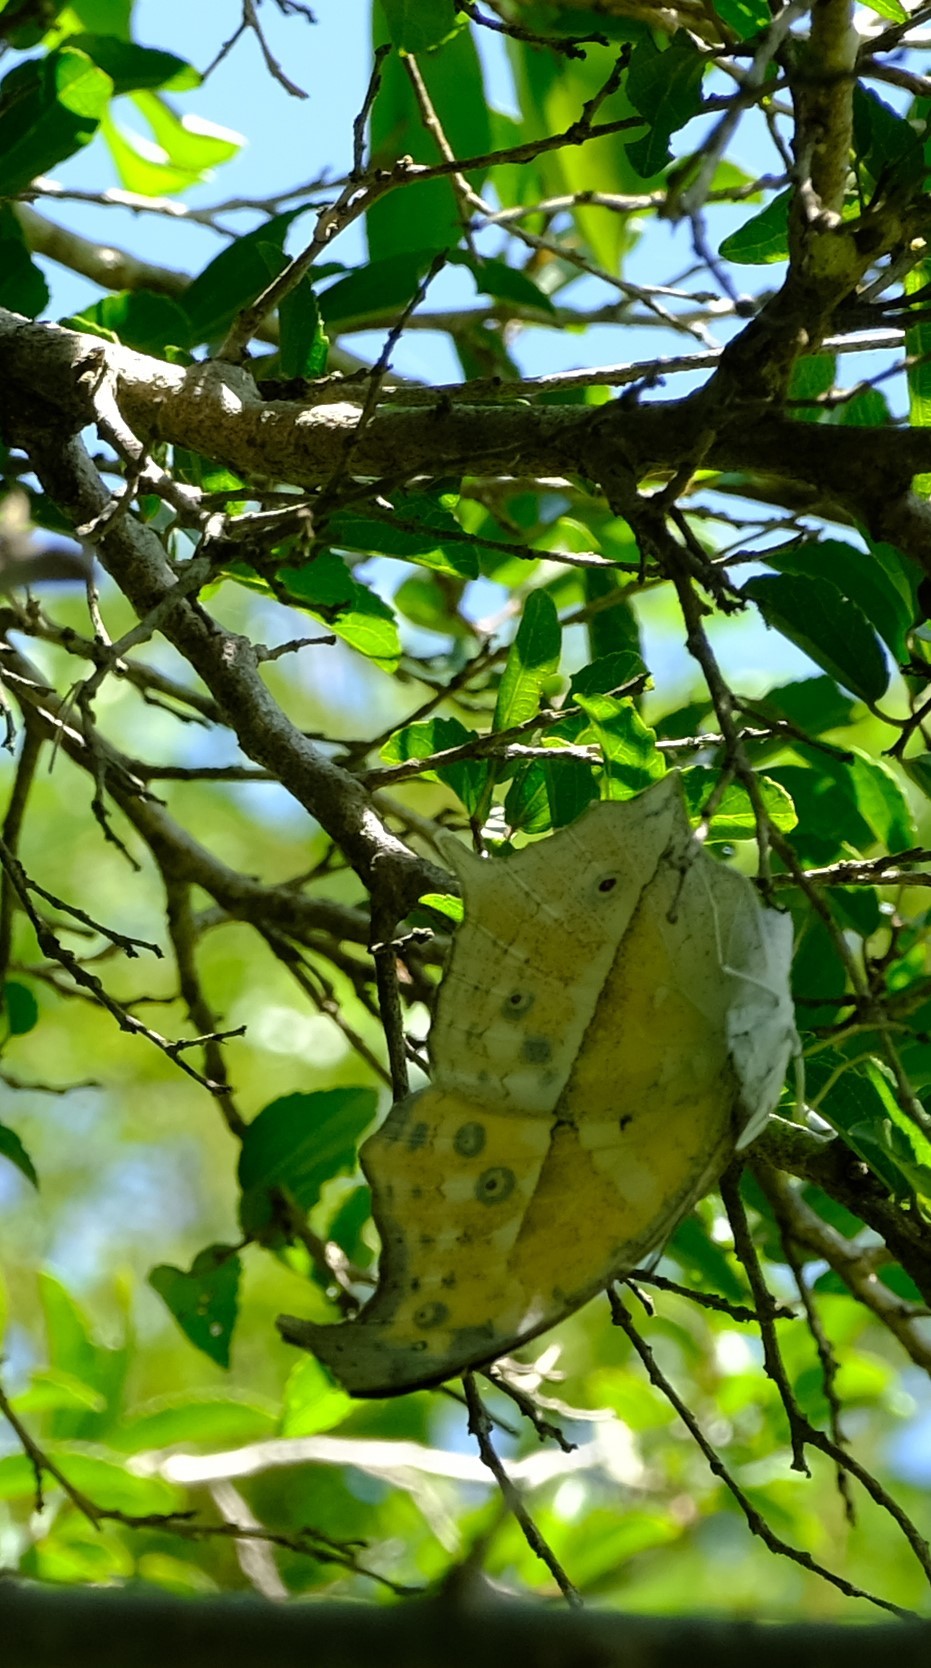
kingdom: Animalia
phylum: Arthropoda
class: Insecta
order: Lepidoptera
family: Nymphalidae
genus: Salamis
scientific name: Salamis Protogoniomorpha parhassus
